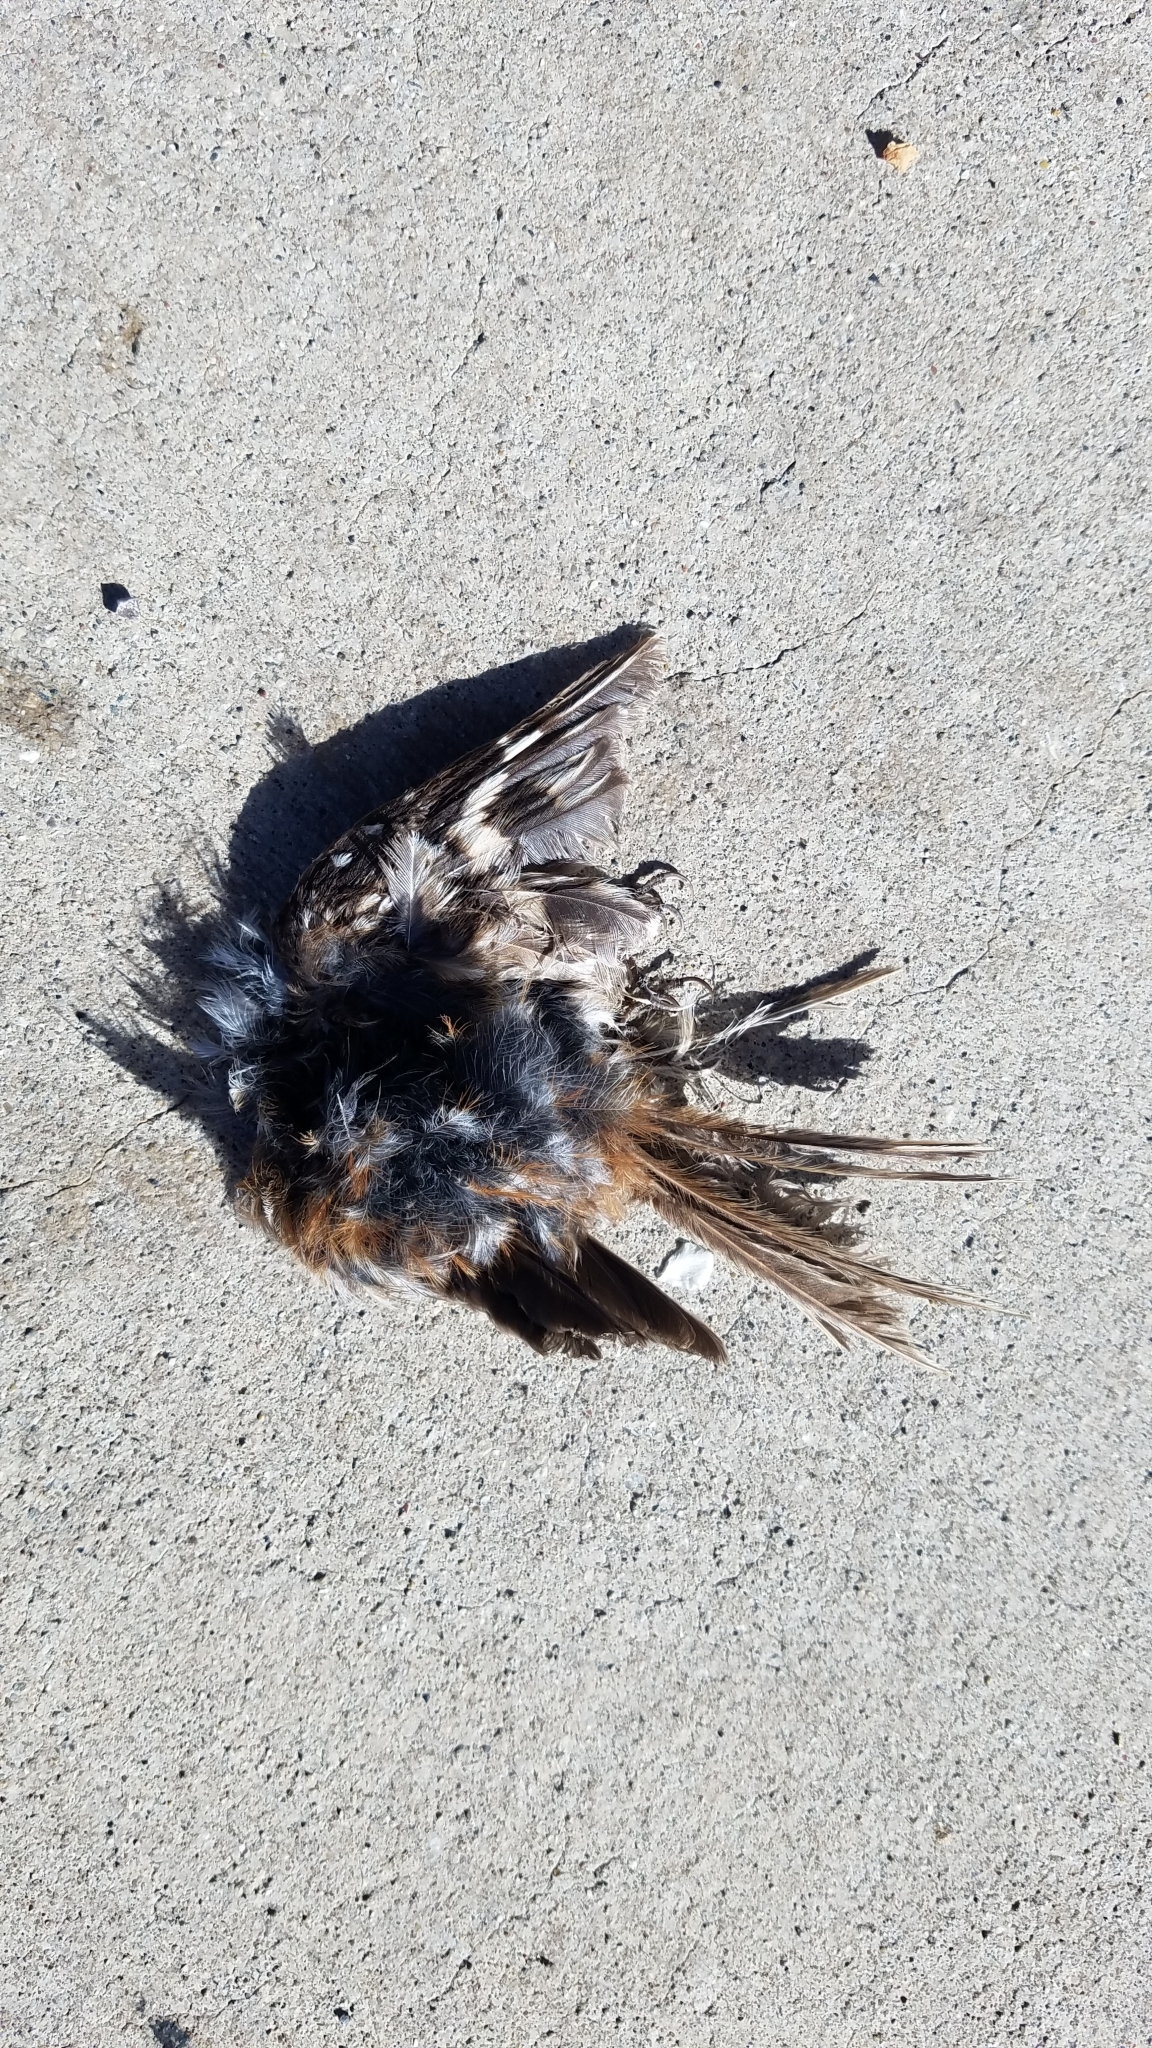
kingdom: Animalia
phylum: Chordata
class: Aves
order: Passeriformes
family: Certhiidae
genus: Certhia
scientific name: Certhia americana
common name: Brown creeper
